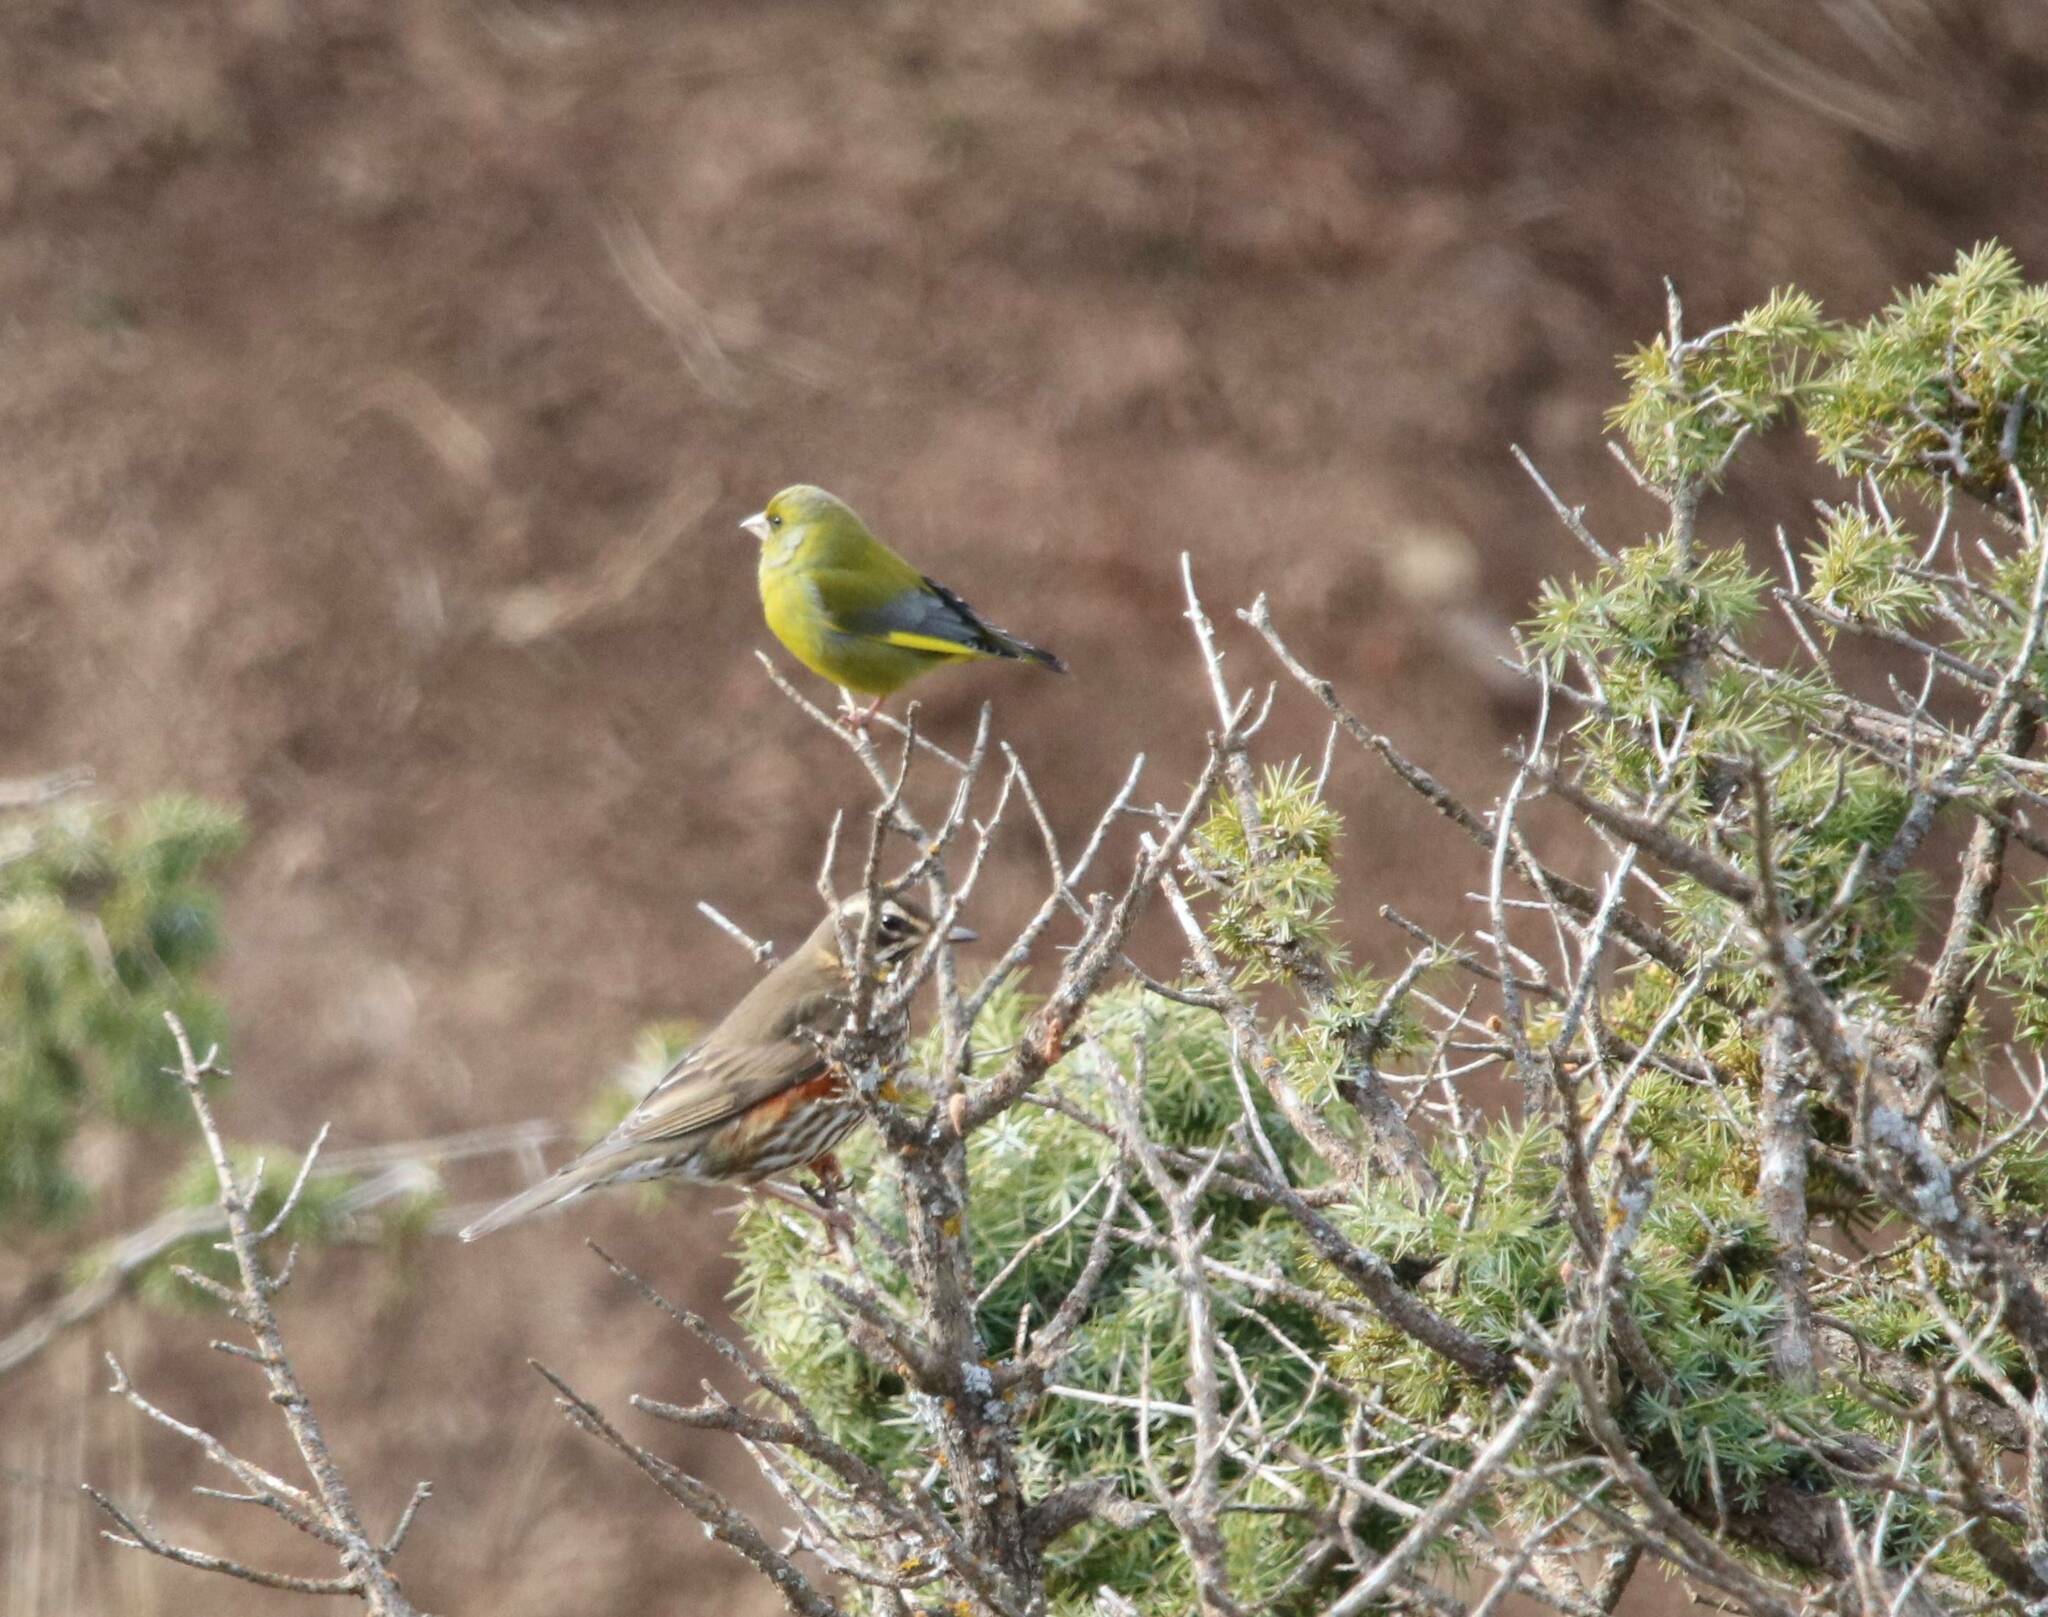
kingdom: Plantae
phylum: Tracheophyta
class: Liliopsida
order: Poales
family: Poaceae
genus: Chloris
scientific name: Chloris chloris
